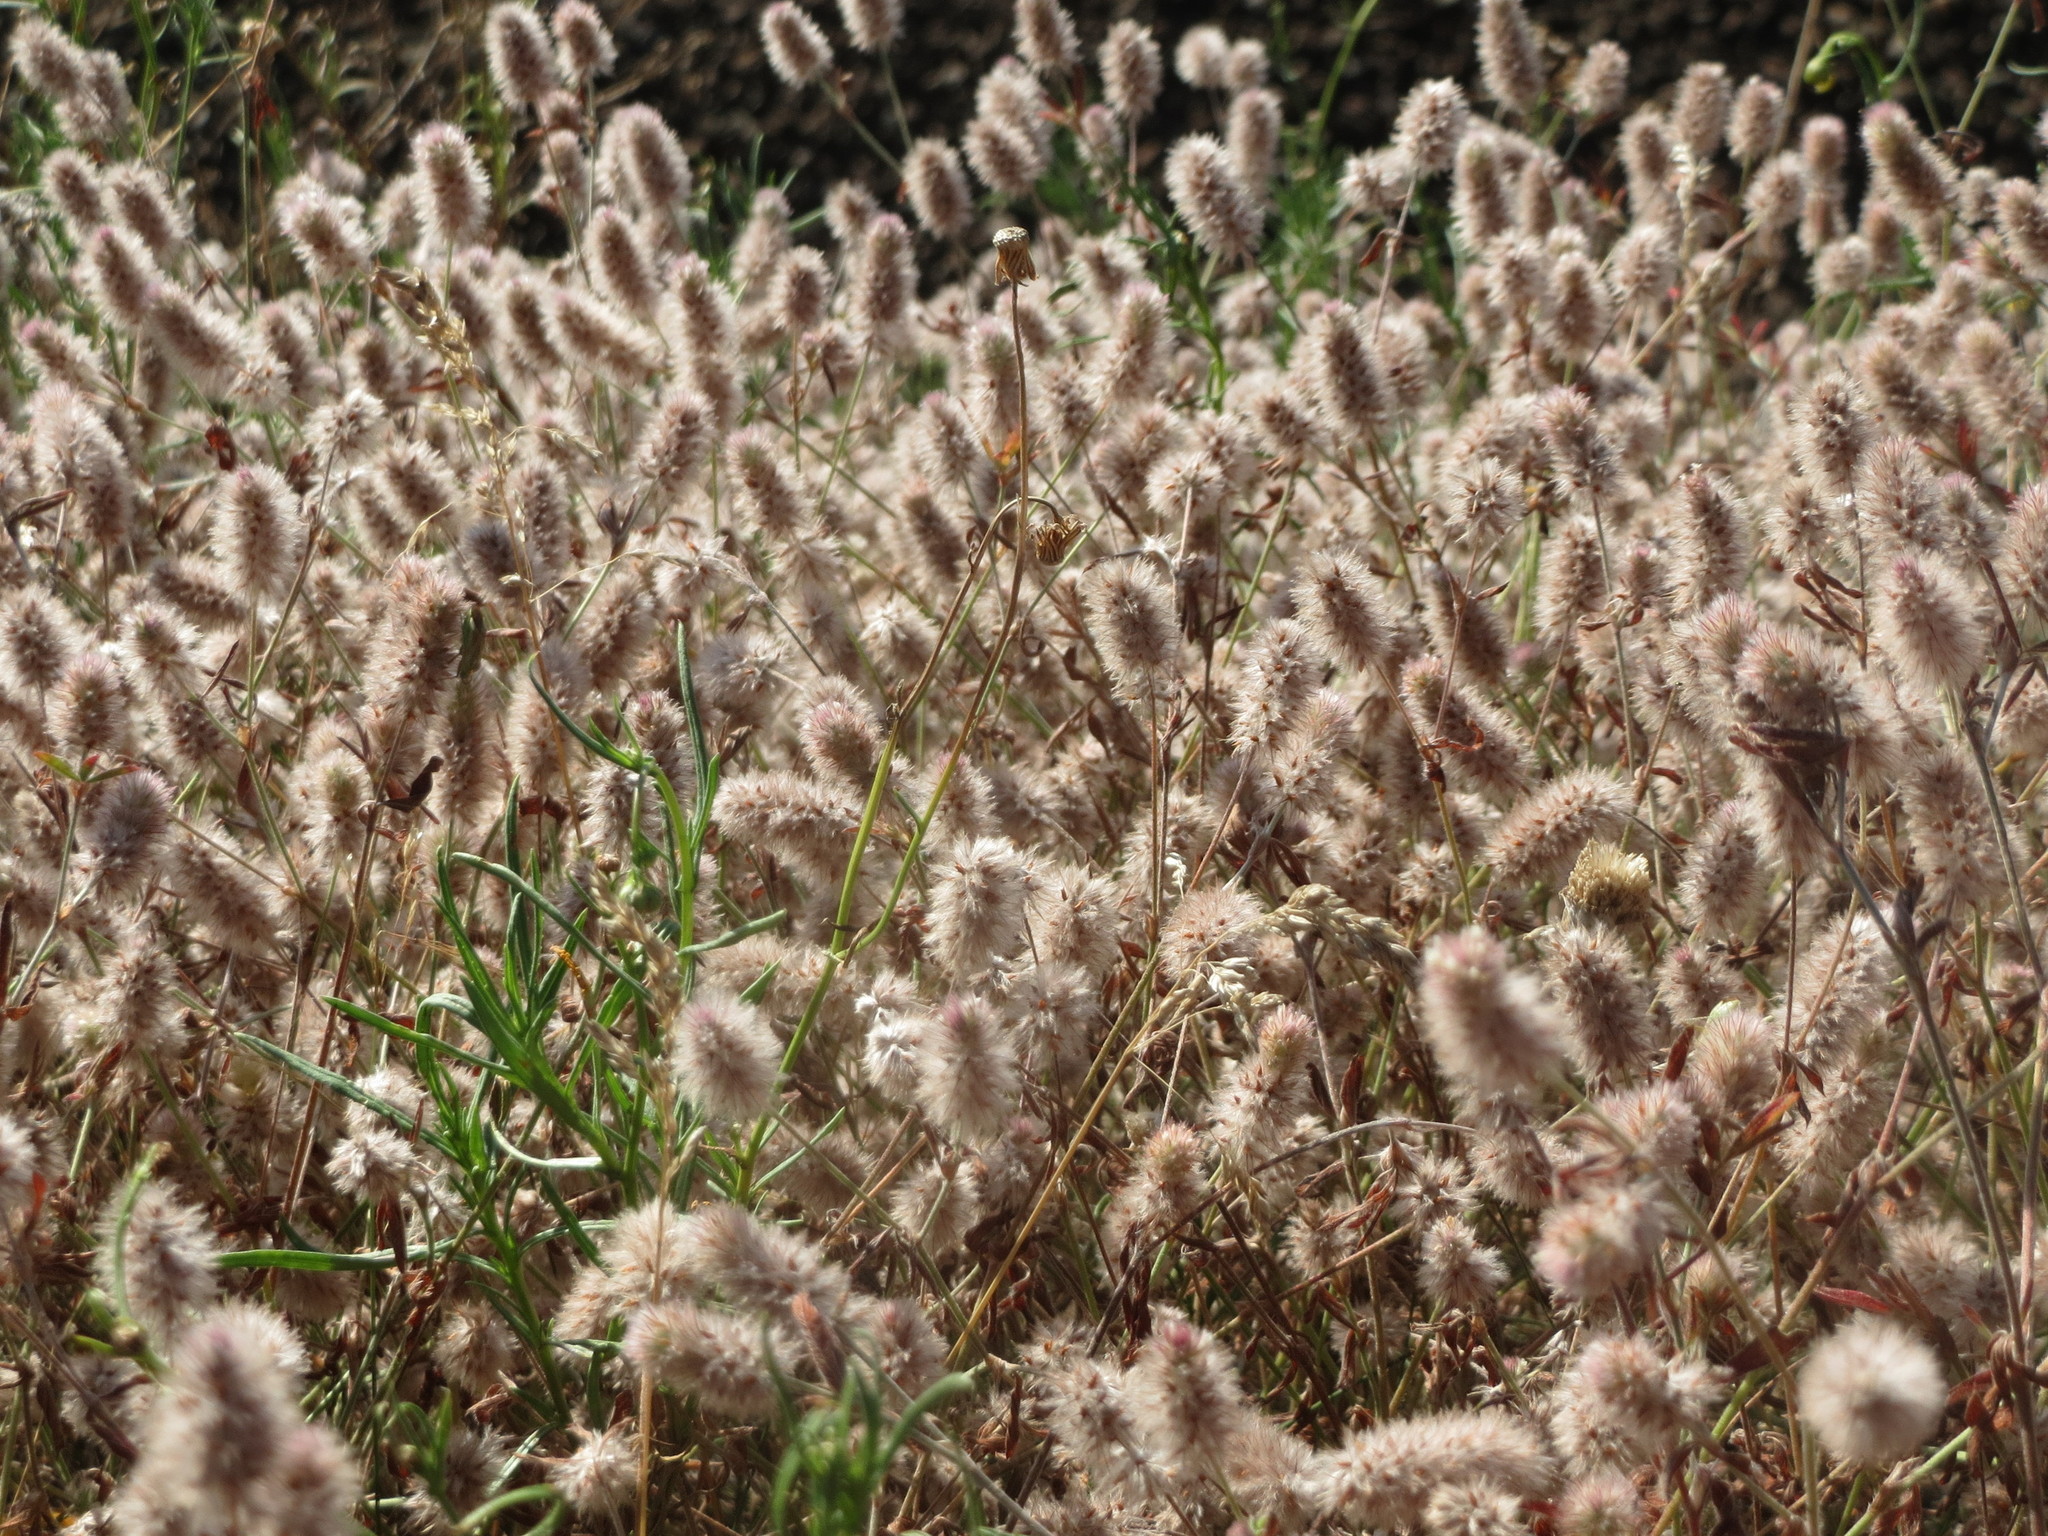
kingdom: Plantae
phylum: Tracheophyta
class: Magnoliopsida
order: Fabales
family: Fabaceae
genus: Trifolium
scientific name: Trifolium arvense
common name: Hare's-foot clover
